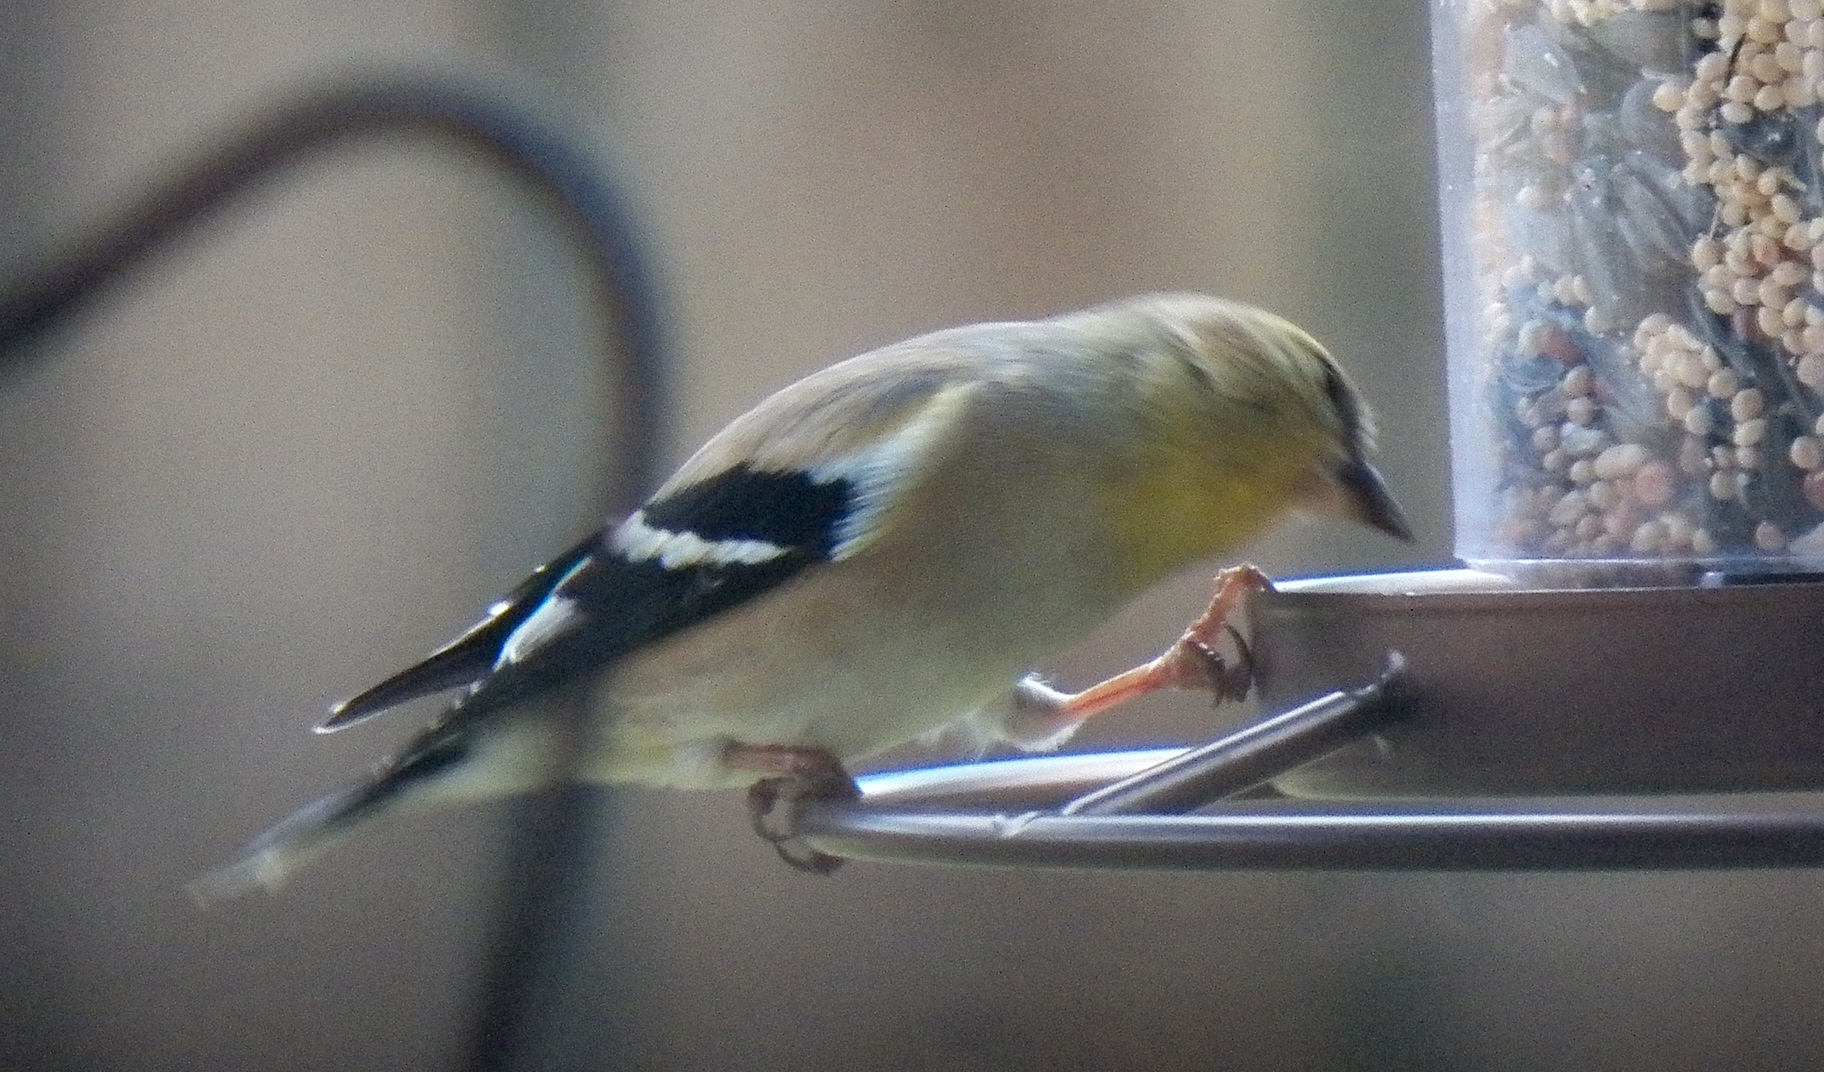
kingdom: Animalia
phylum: Chordata
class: Aves
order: Passeriformes
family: Fringillidae
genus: Spinus
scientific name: Spinus tristis
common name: American goldfinch
